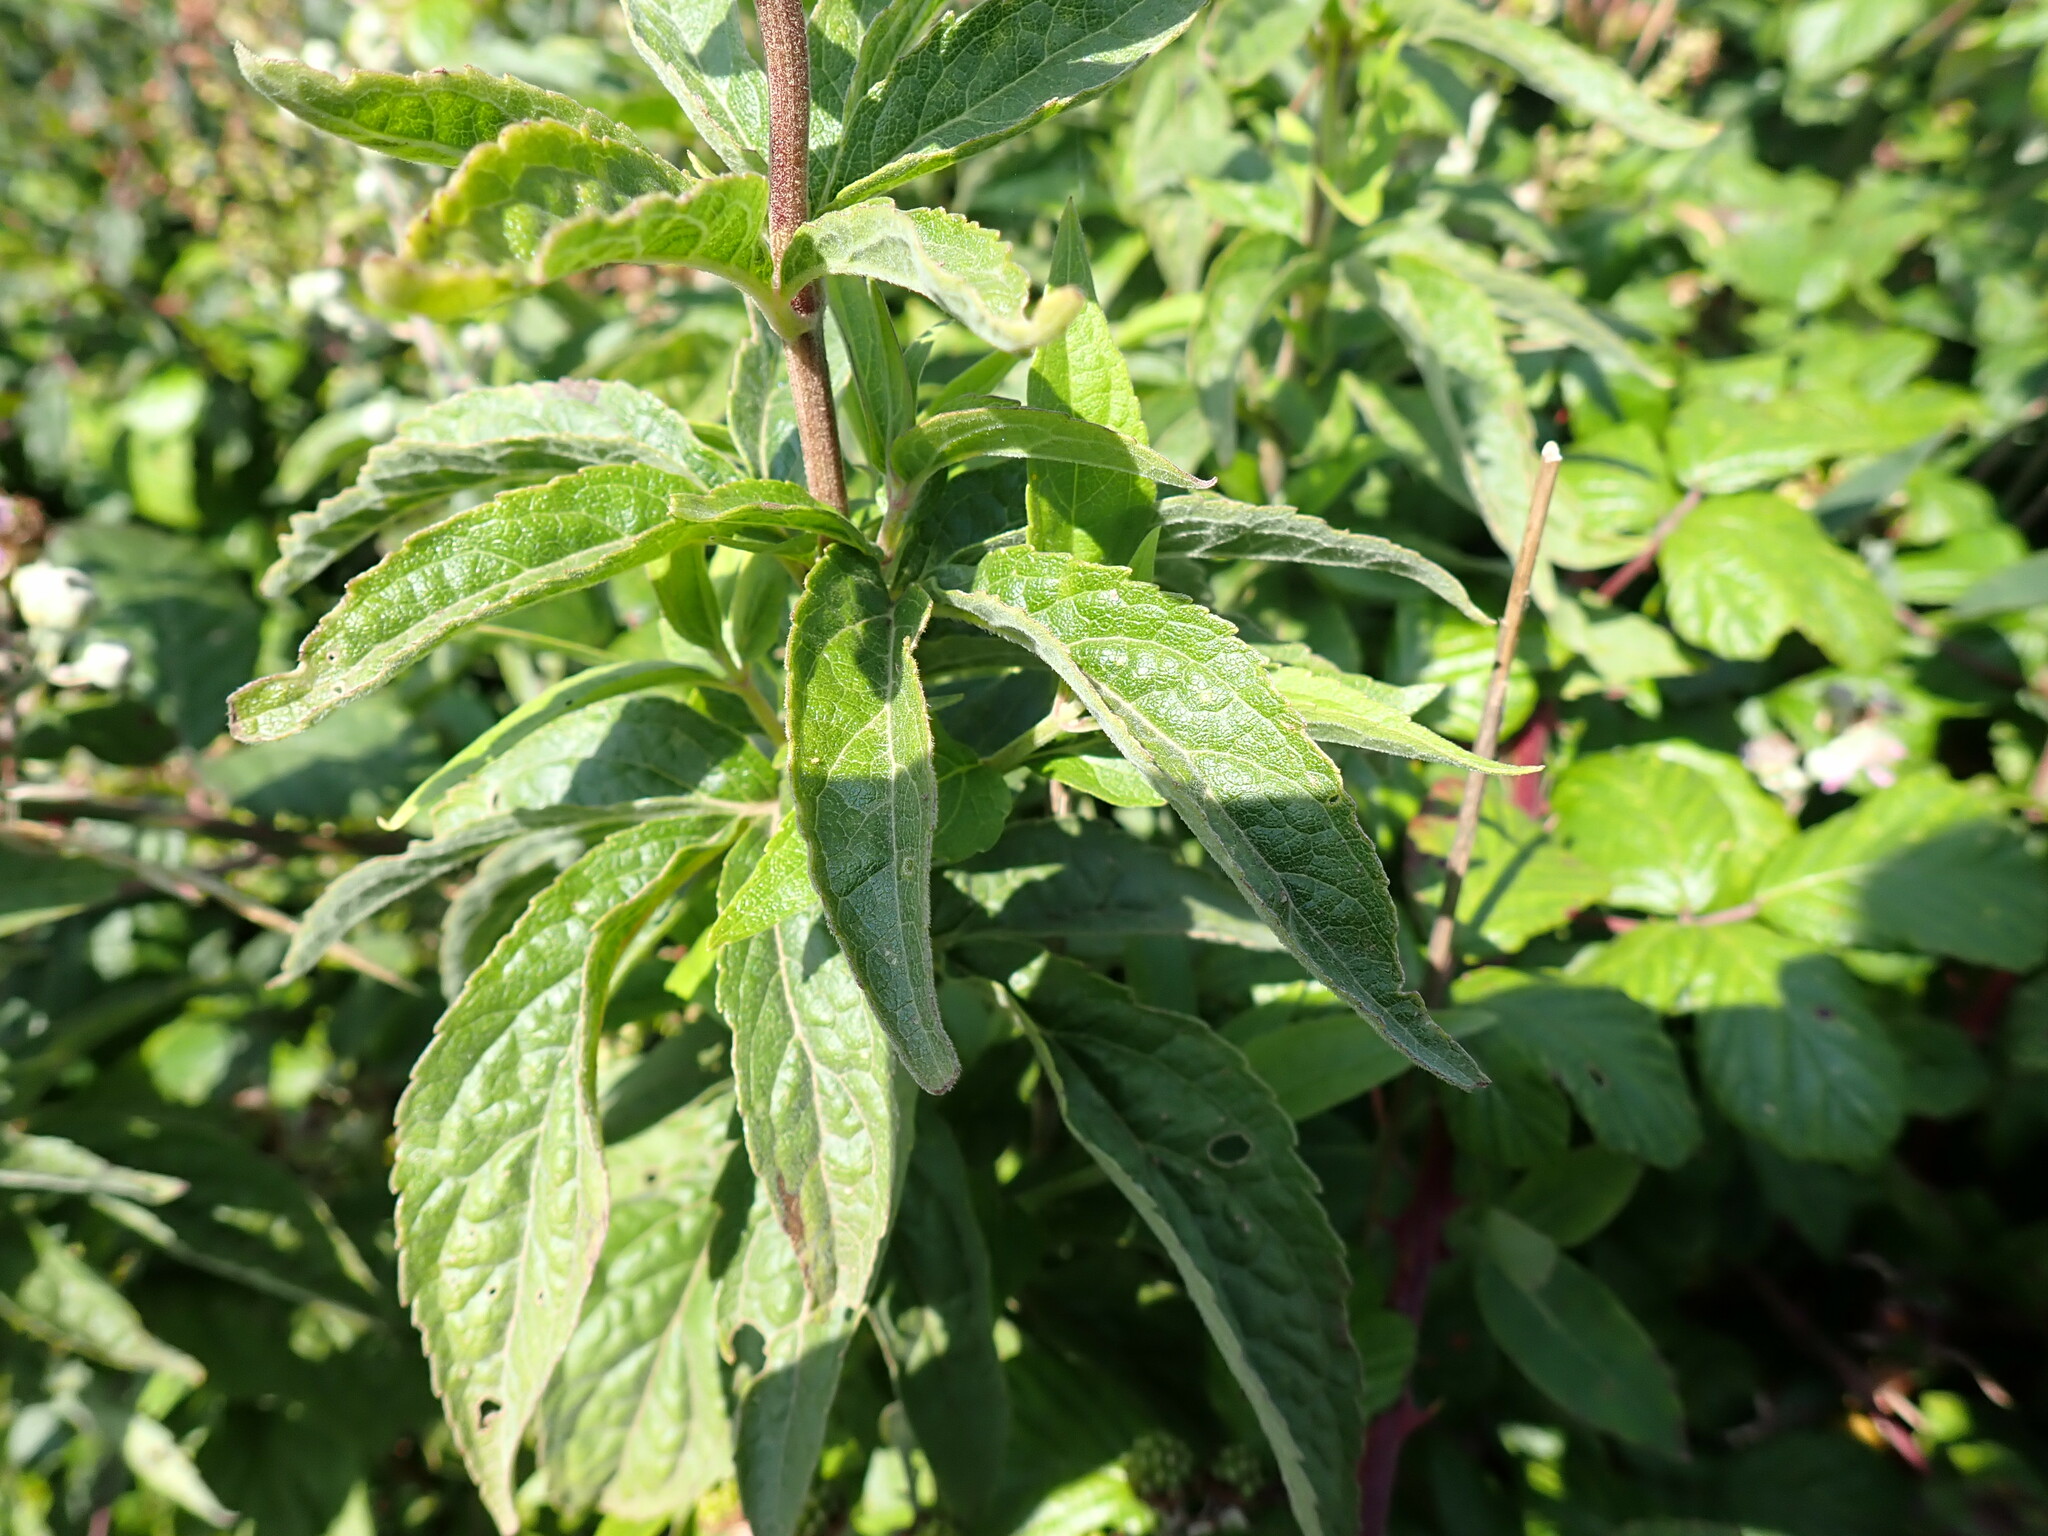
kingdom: Plantae
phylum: Tracheophyta
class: Magnoliopsida
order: Asterales
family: Asteraceae
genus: Eupatorium
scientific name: Eupatorium cannabinum
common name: Hemp-agrimony
